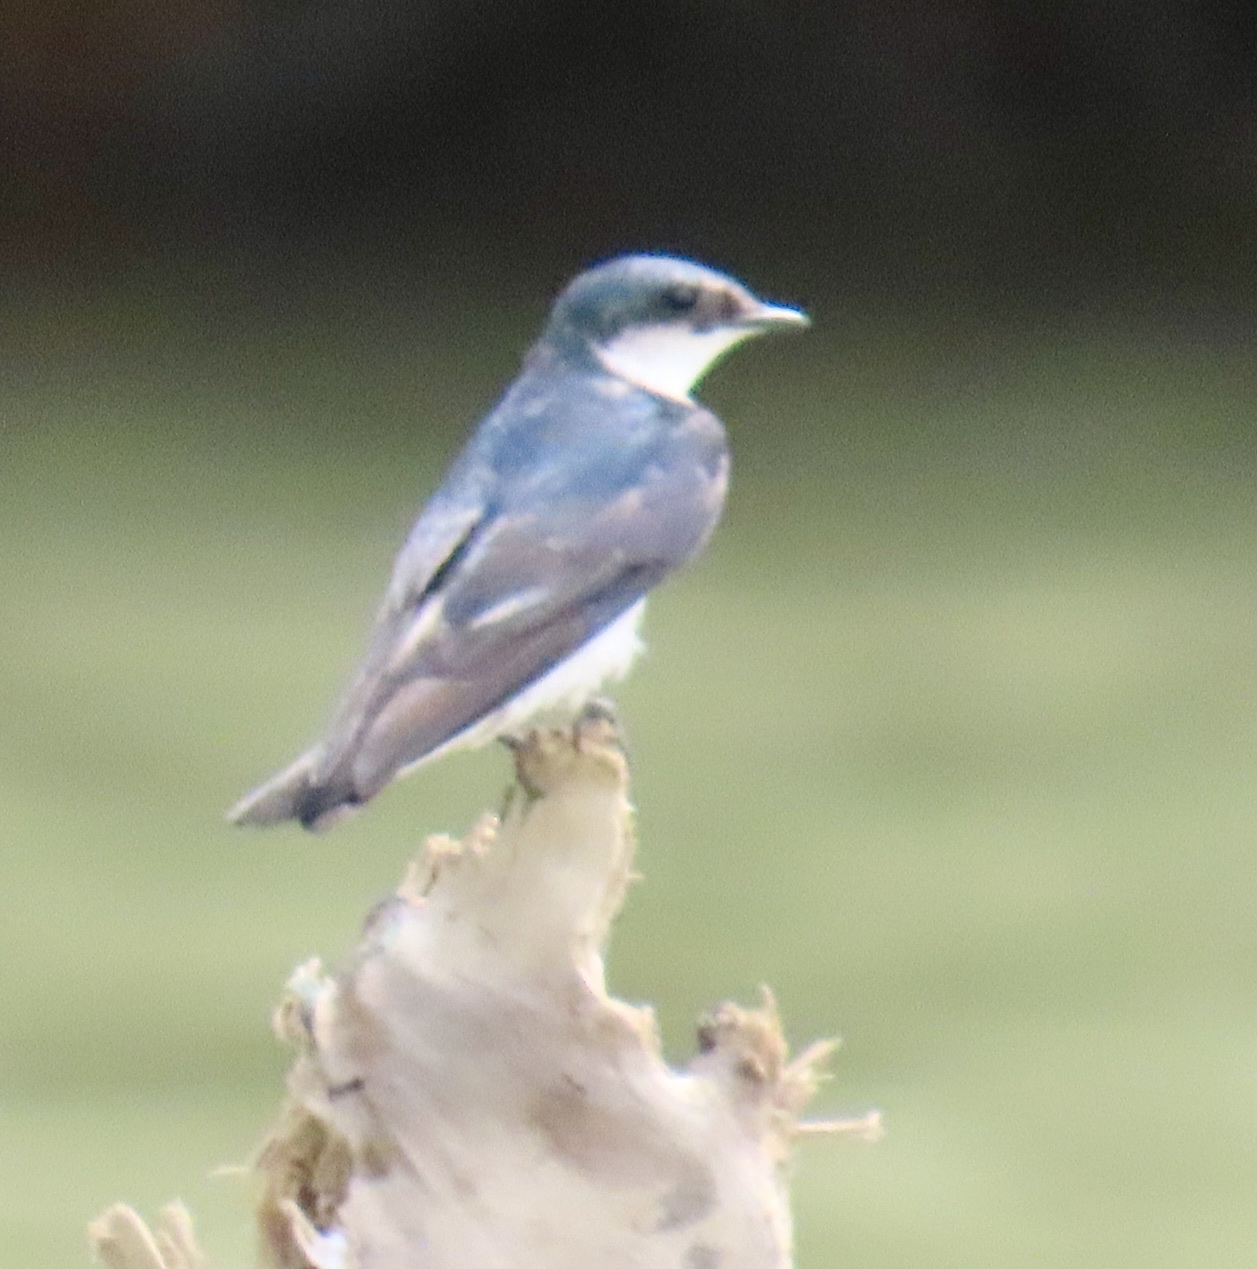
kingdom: Animalia
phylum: Chordata
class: Aves
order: Passeriformes
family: Hirundinidae
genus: Tachycineta
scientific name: Tachycineta albilinea
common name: Mangrove swallow
